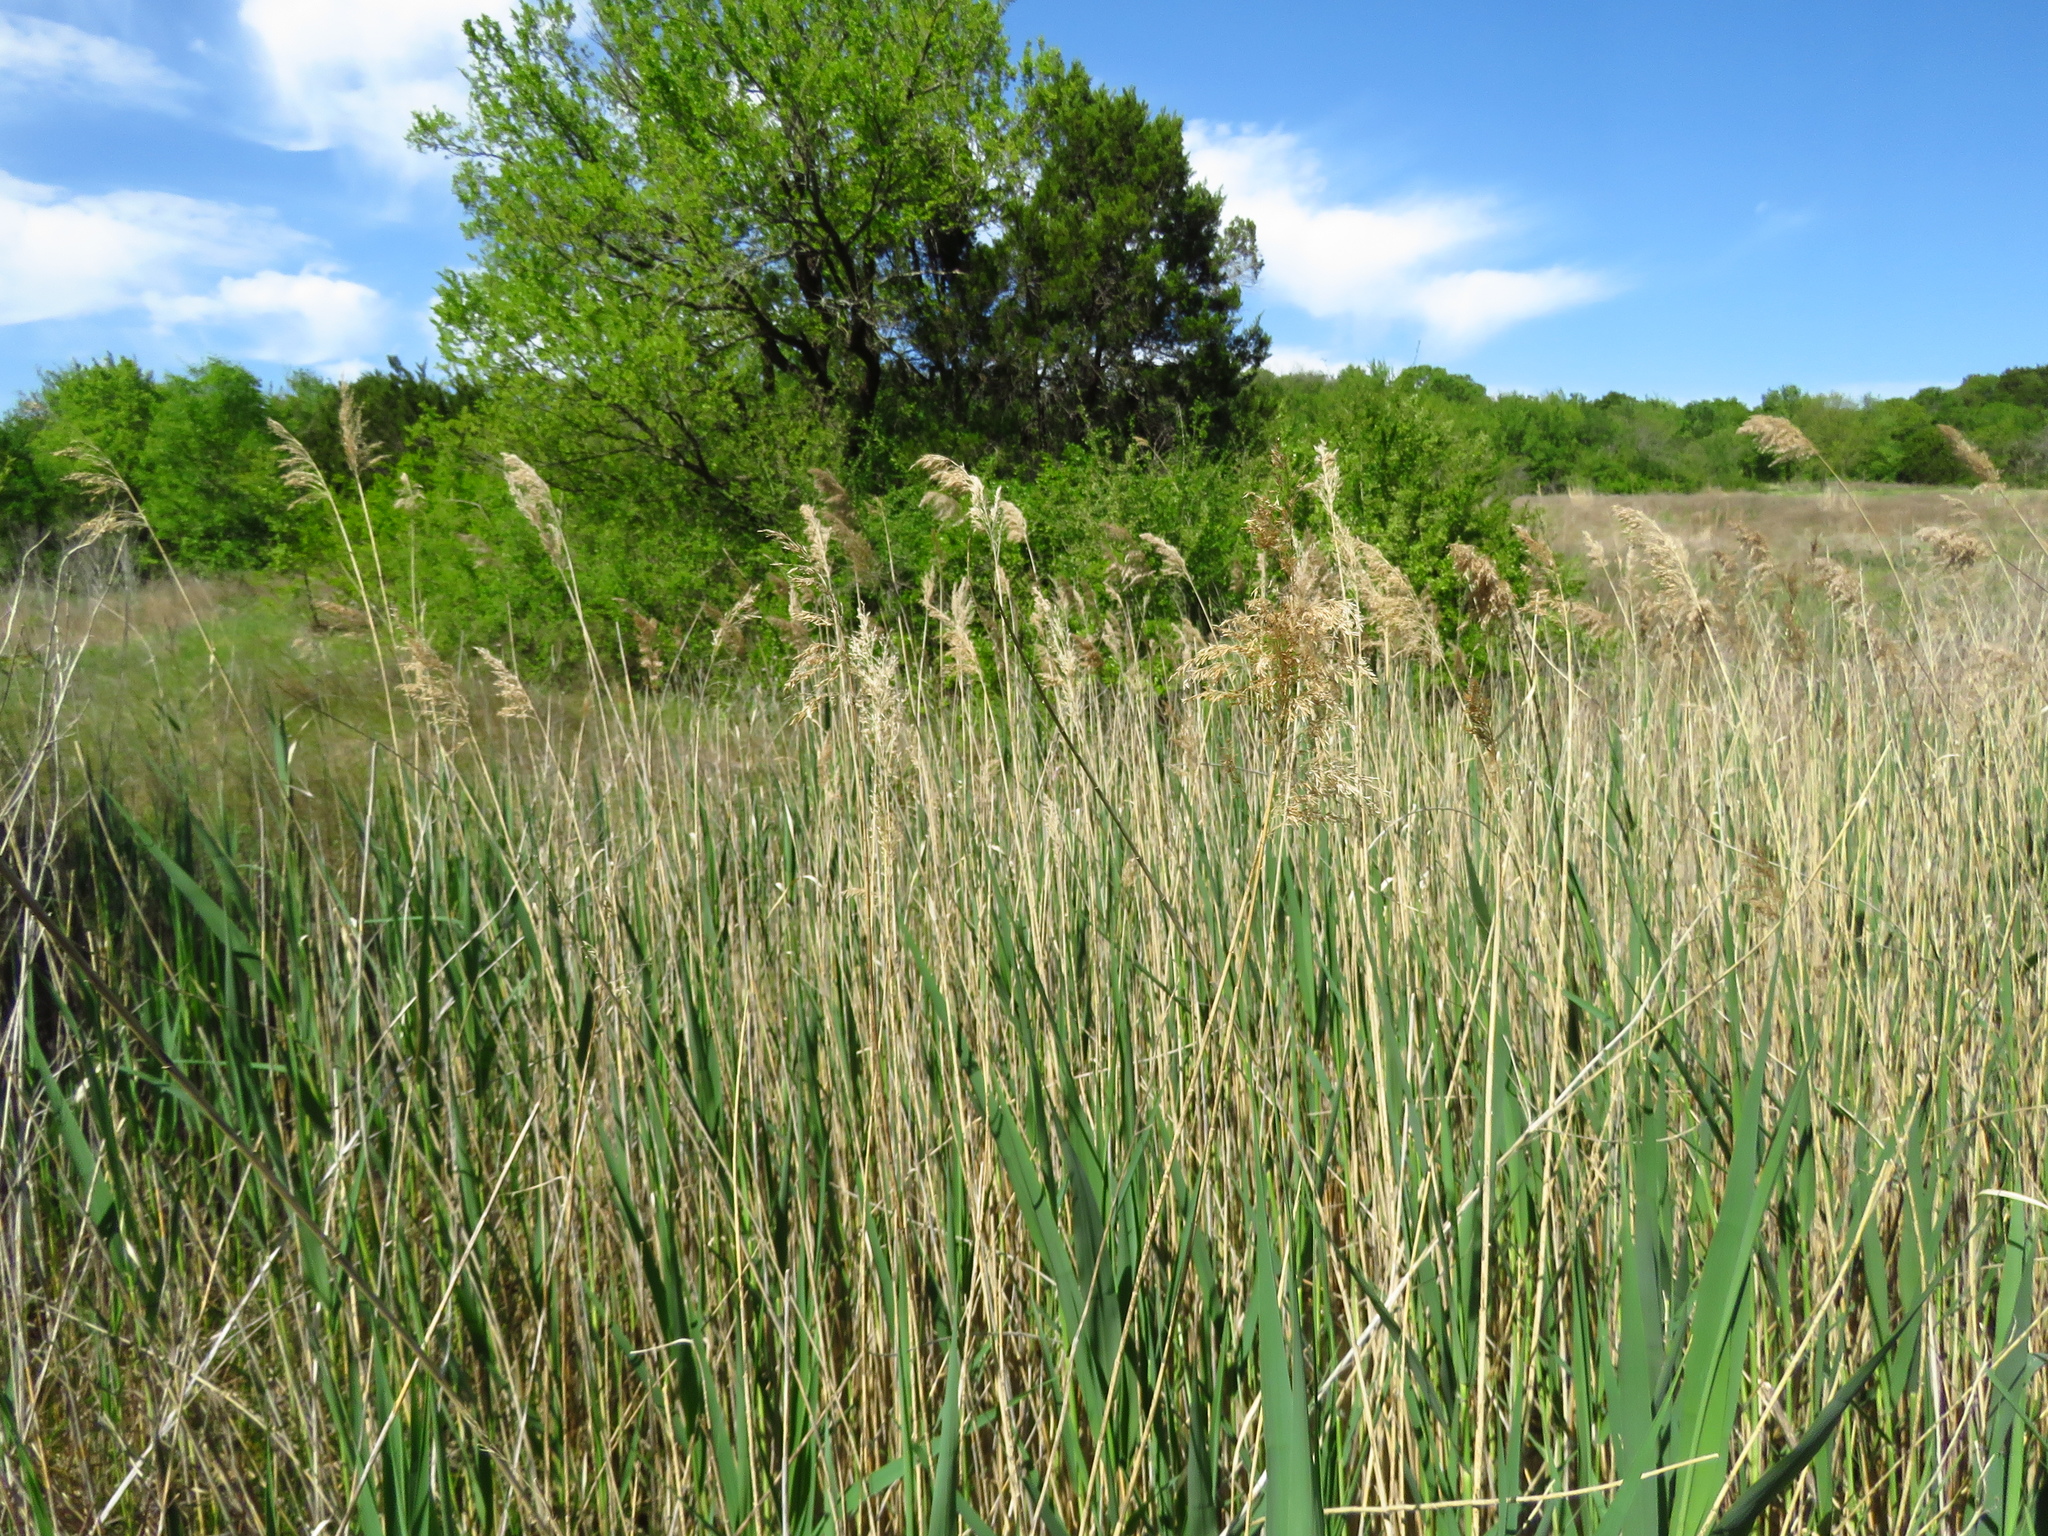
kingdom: Plantae
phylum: Tracheophyta
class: Liliopsida
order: Poales
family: Poaceae
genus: Phragmites
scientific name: Phragmites australis
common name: Common reed
